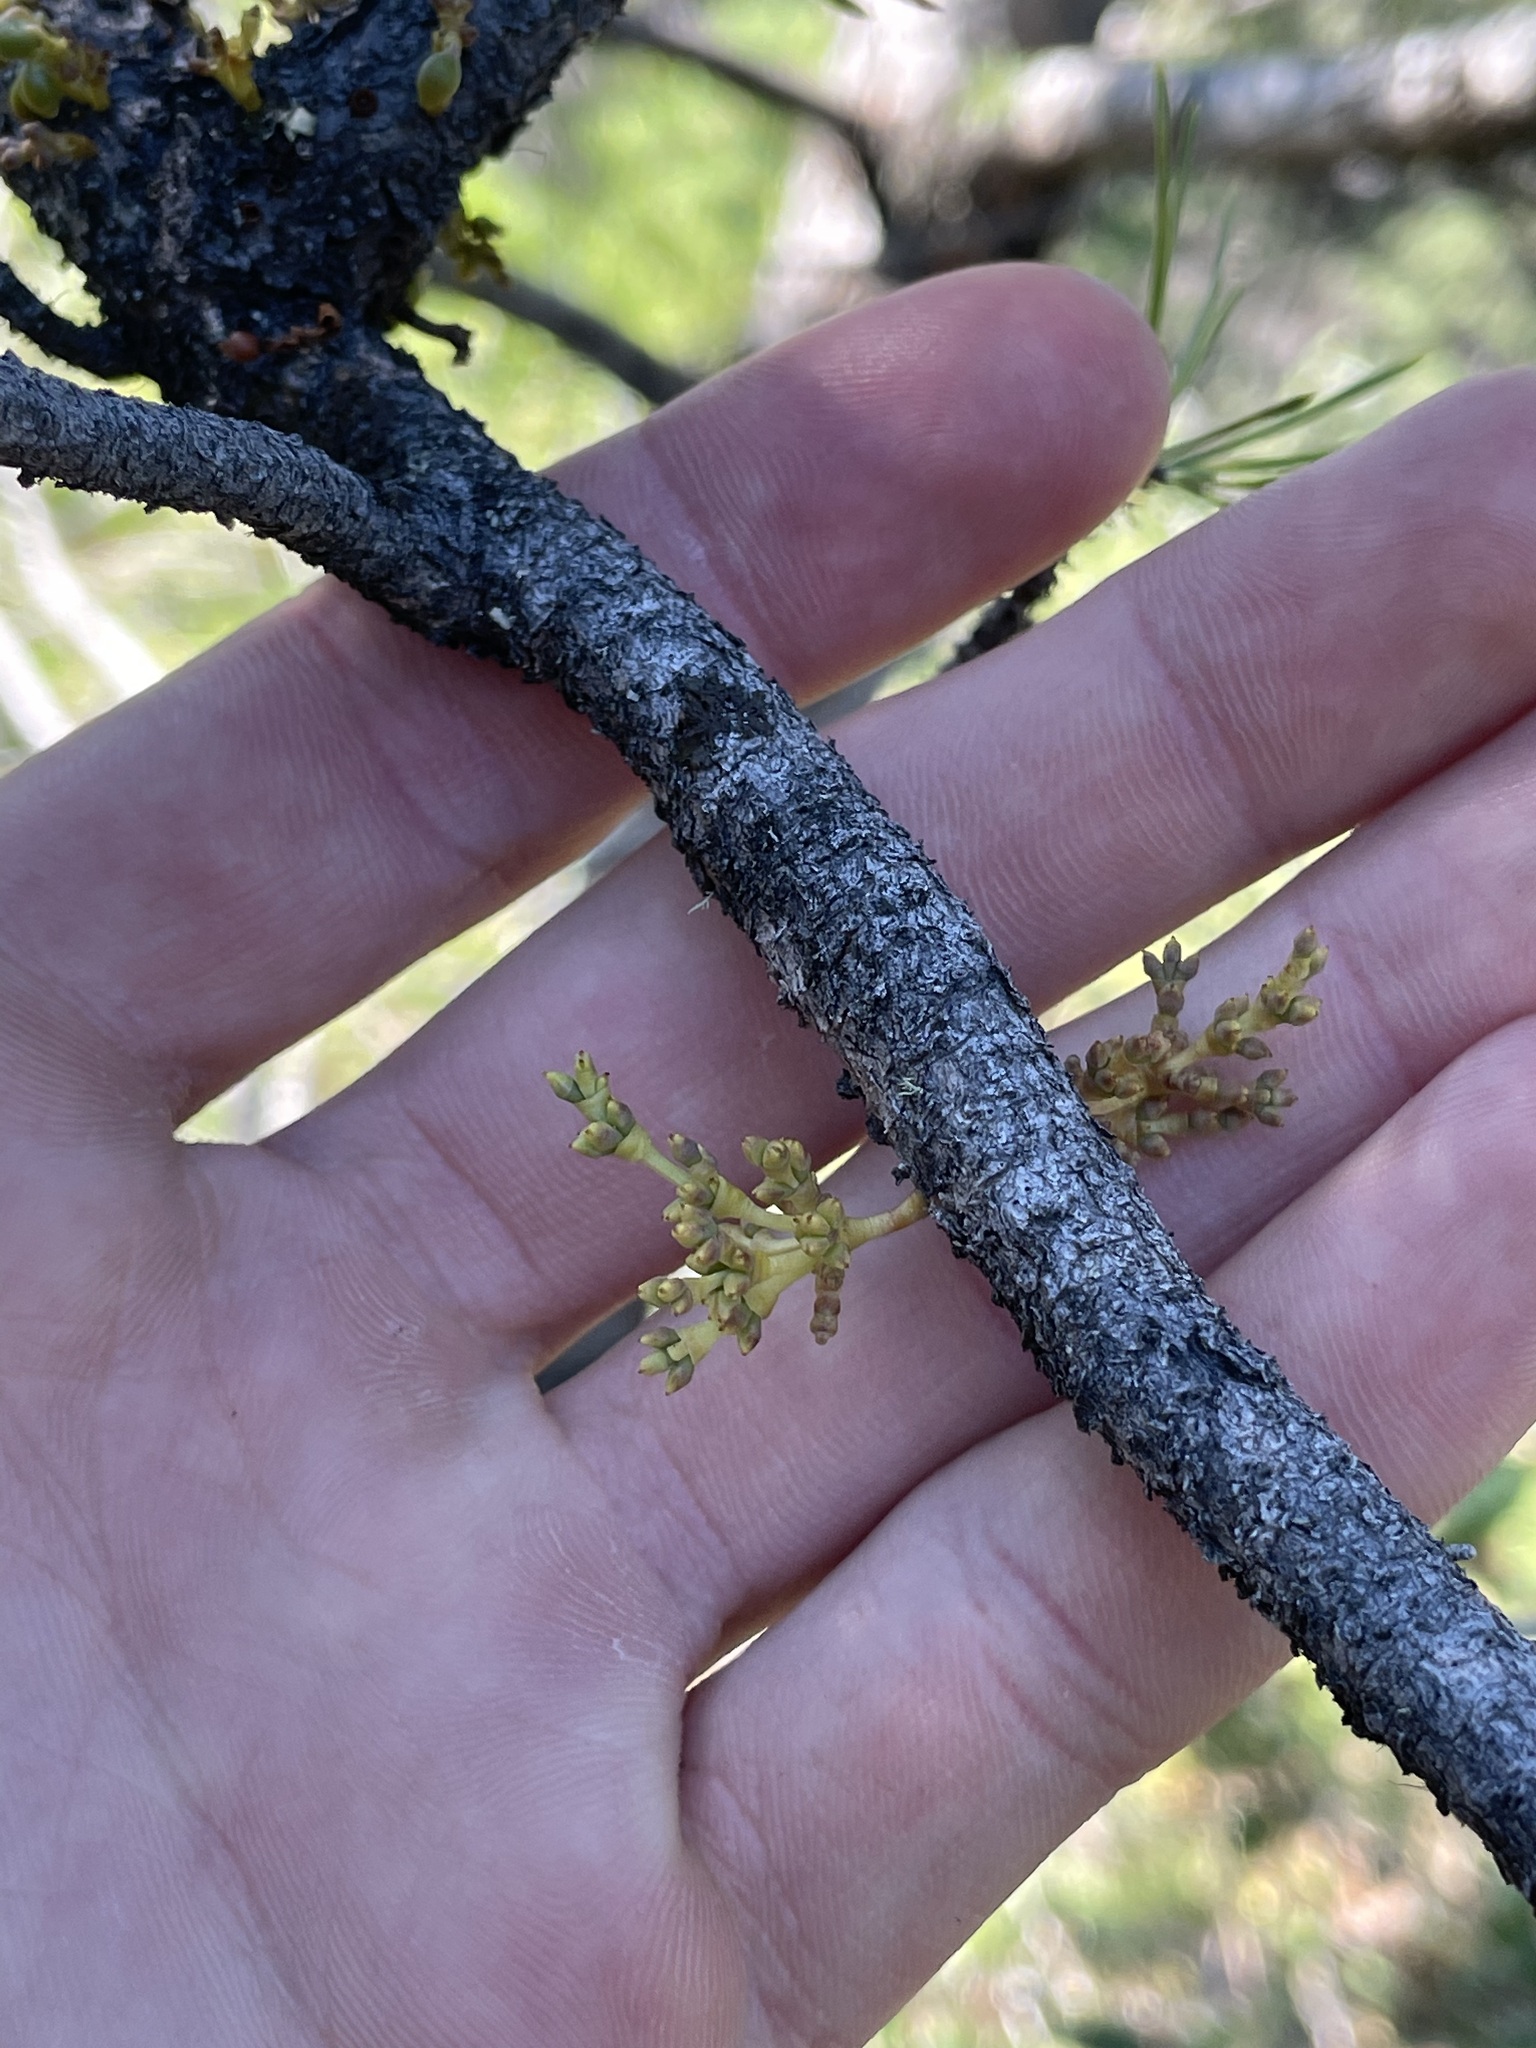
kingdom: Plantae
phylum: Tracheophyta
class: Magnoliopsida
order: Santalales
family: Viscaceae
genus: Arceuthobium
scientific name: Arceuthobium americanum
